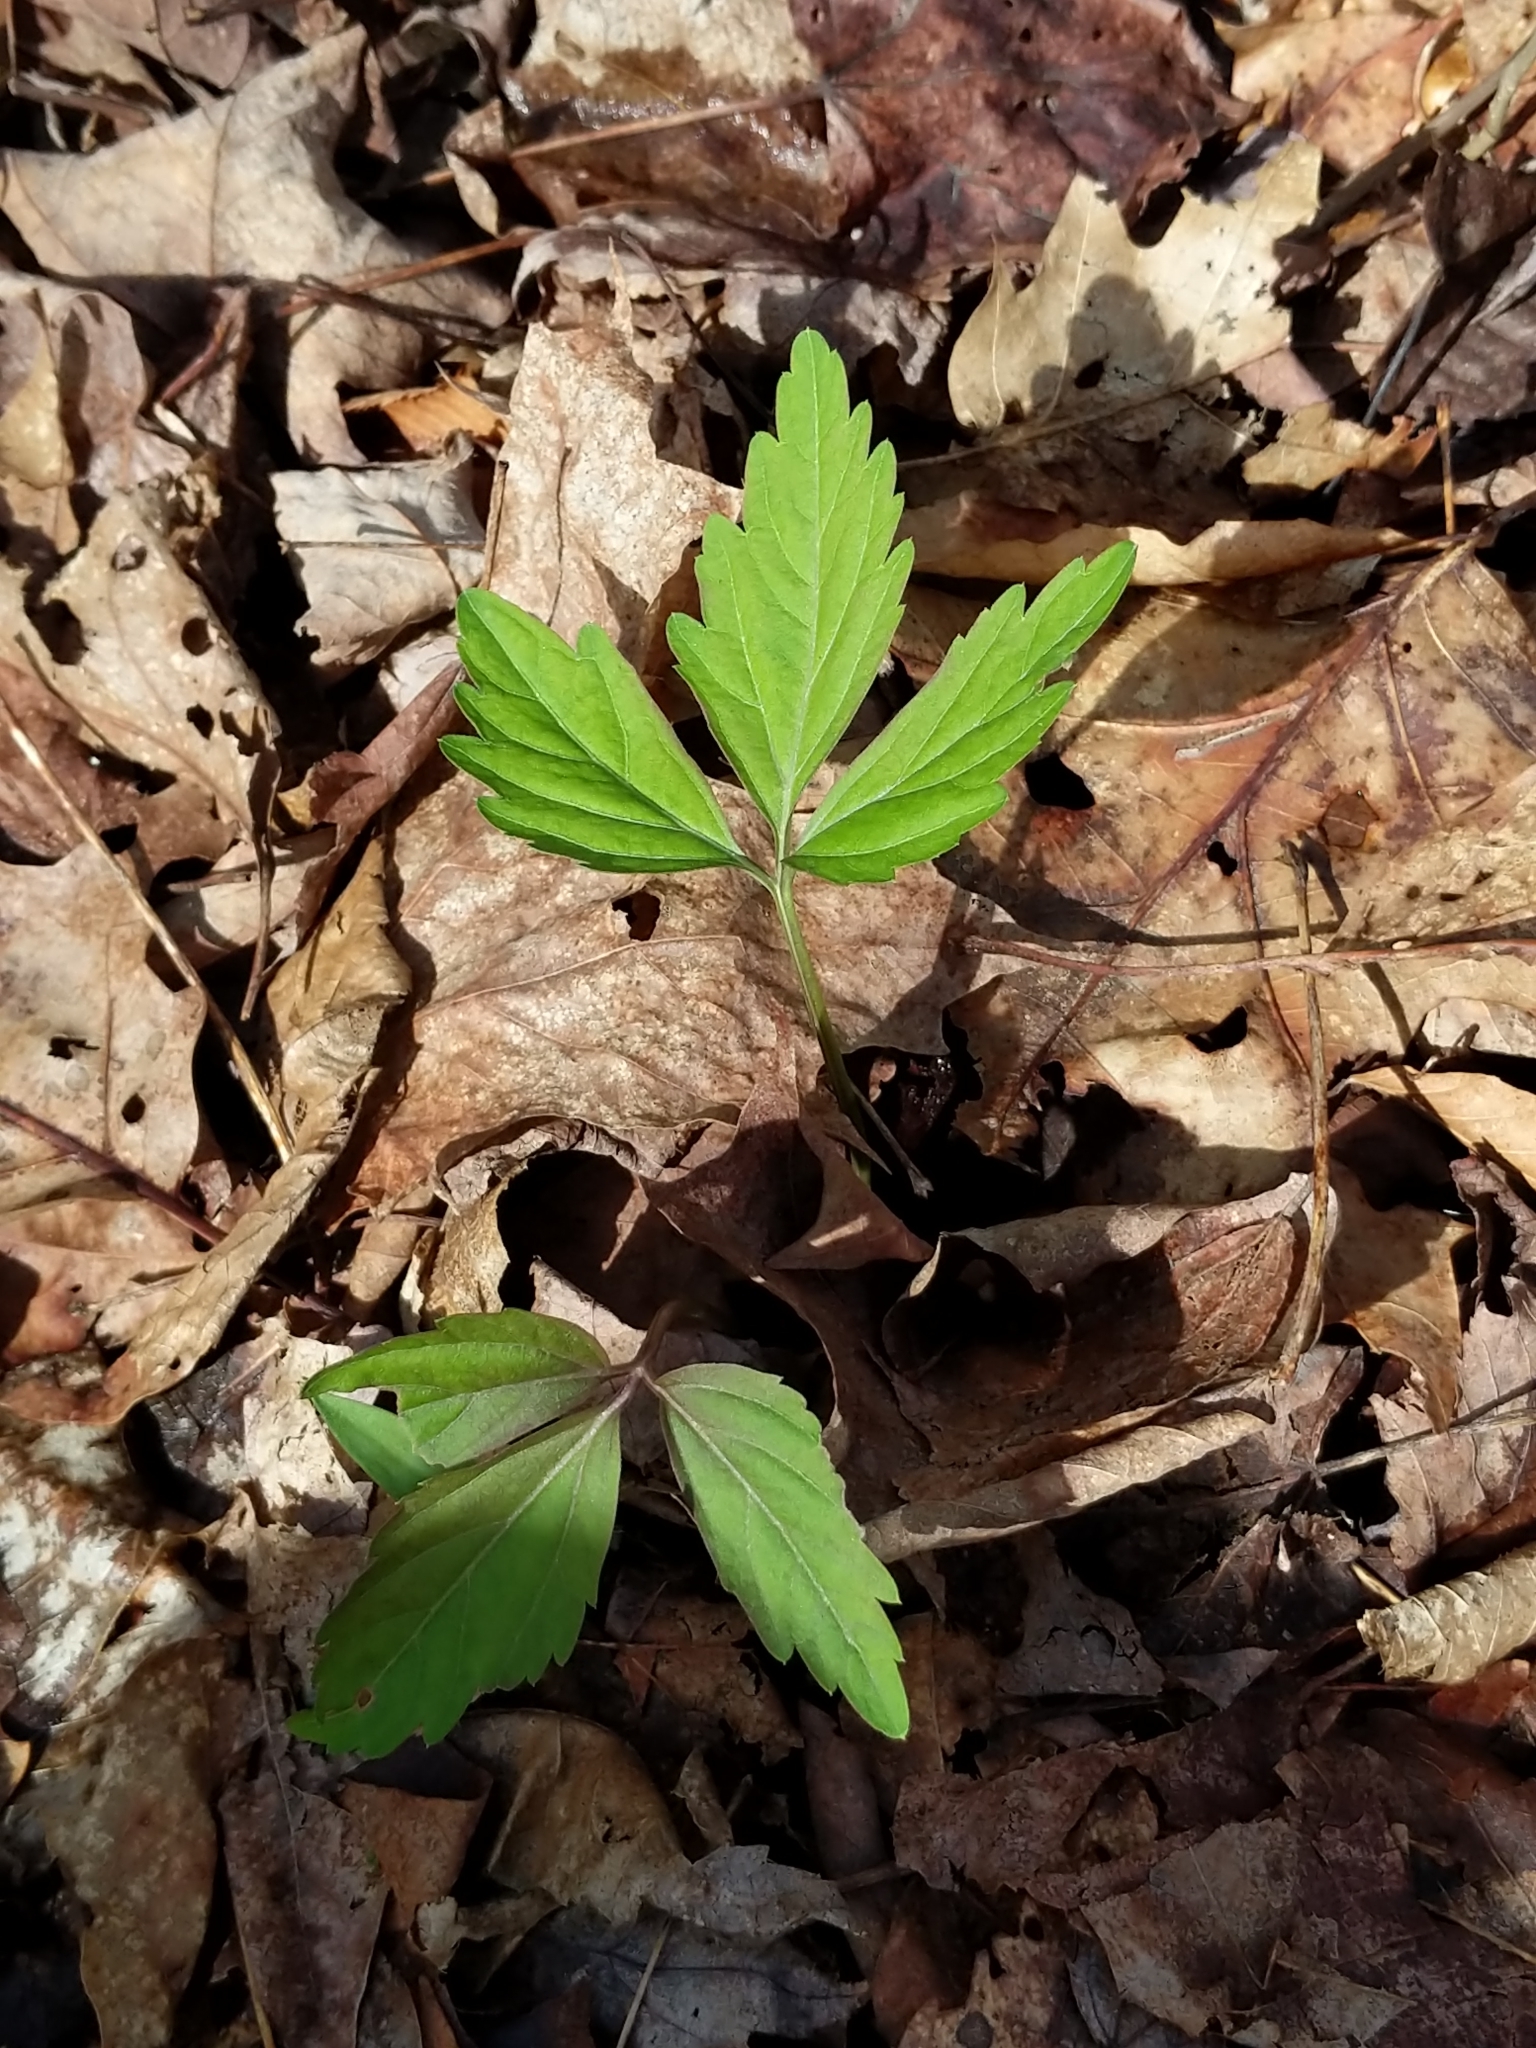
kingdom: Plantae
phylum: Tracheophyta
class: Magnoliopsida
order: Brassicales
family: Brassicaceae
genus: Cardamine
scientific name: Cardamine diphylla
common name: Broad-leaved toothwort
